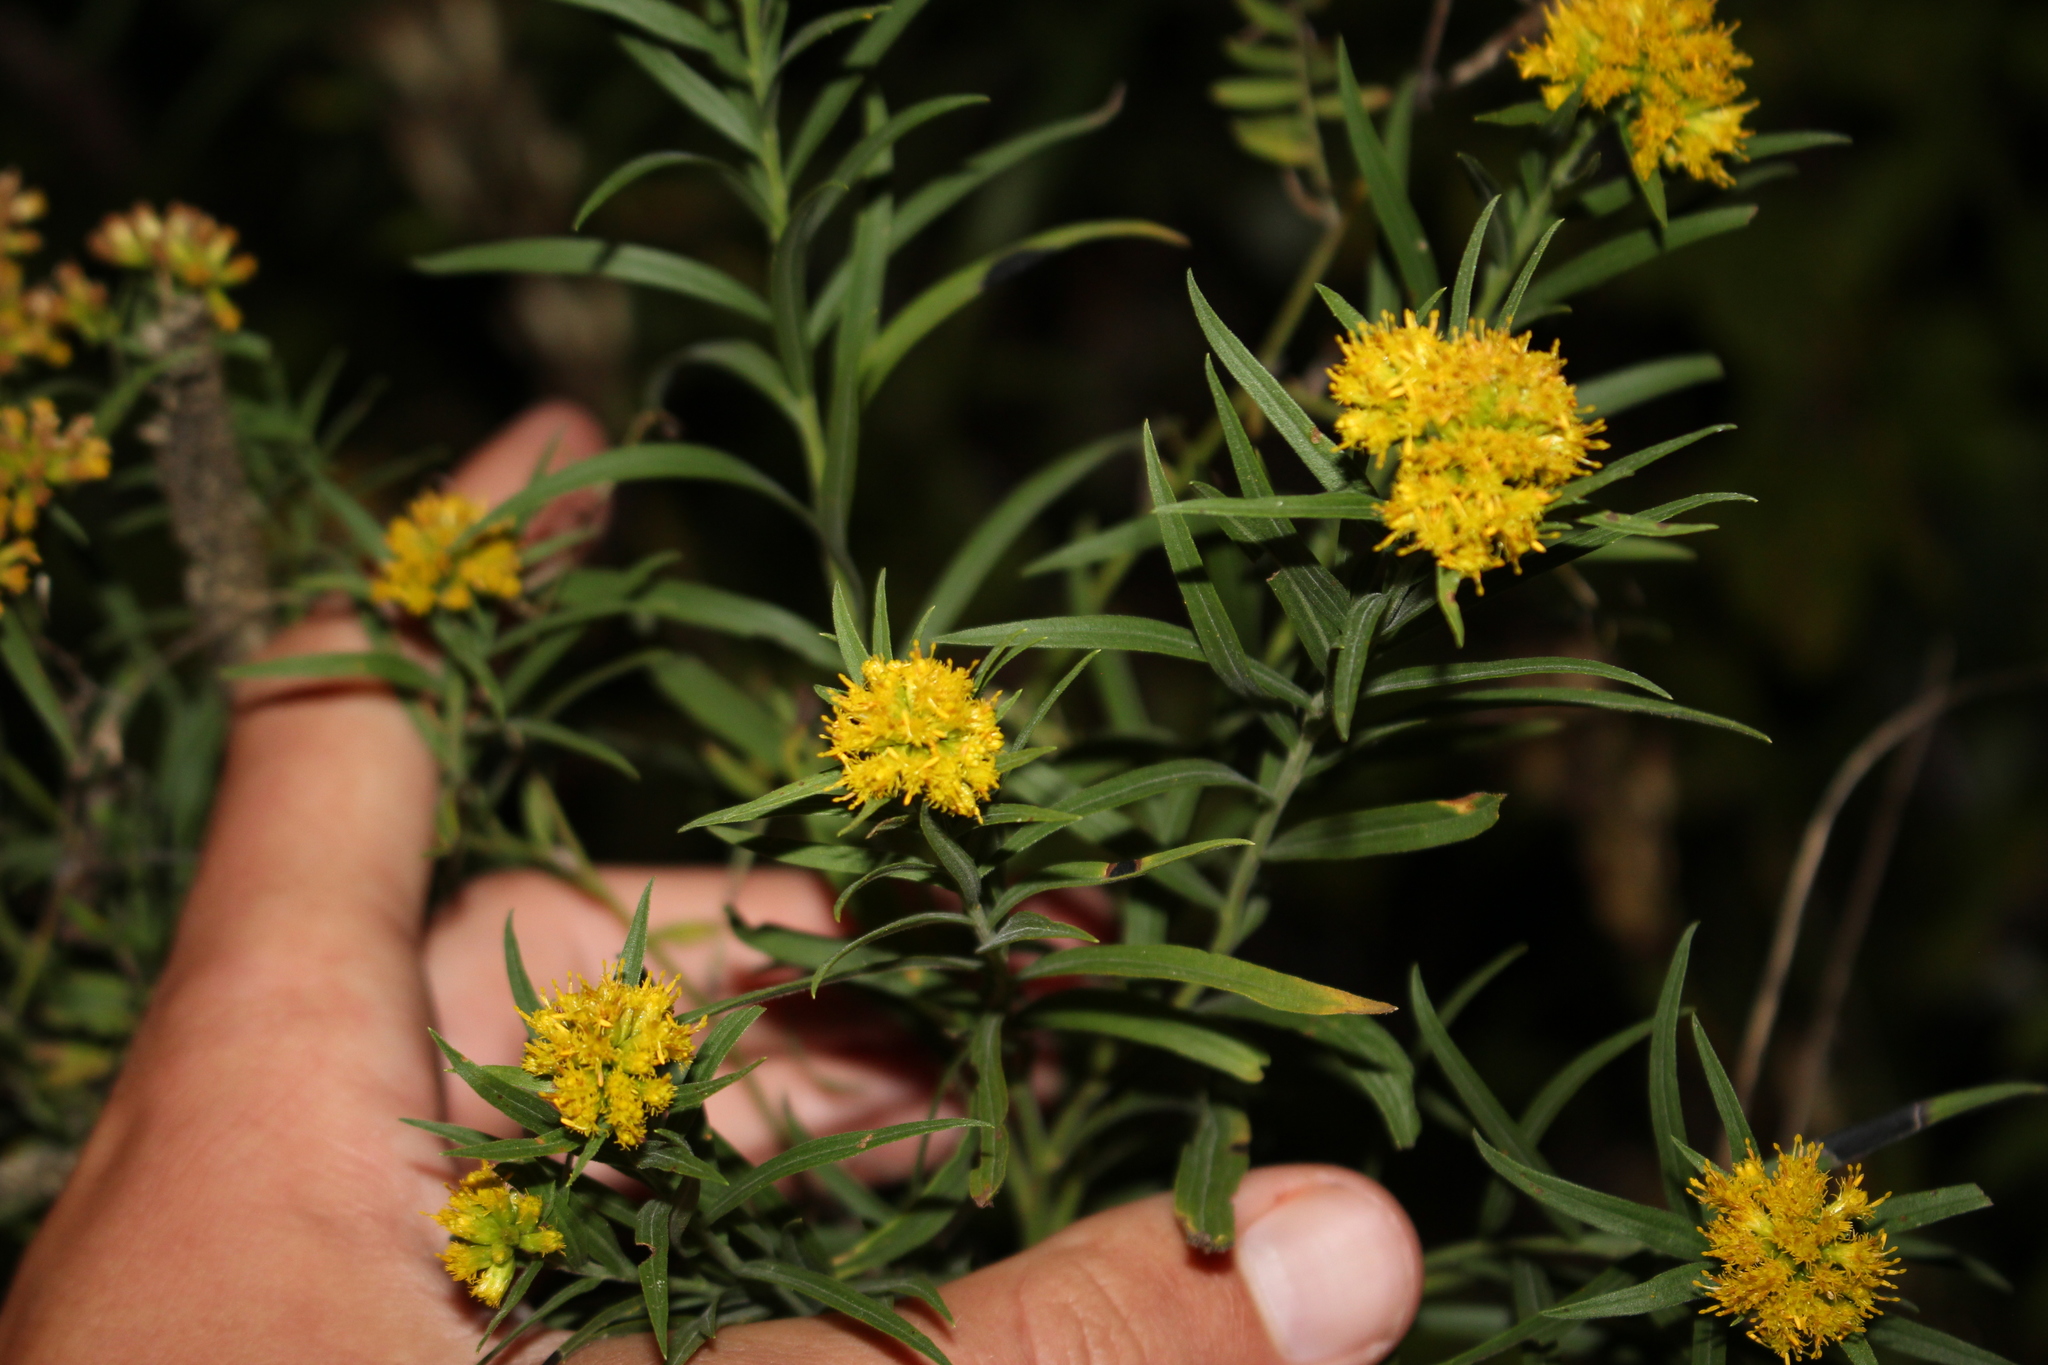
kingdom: Plantae
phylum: Tracheophyta
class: Magnoliopsida
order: Asterales
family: Asteraceae
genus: Euthamia
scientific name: Euthamia graminifolia
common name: Common goldentop
